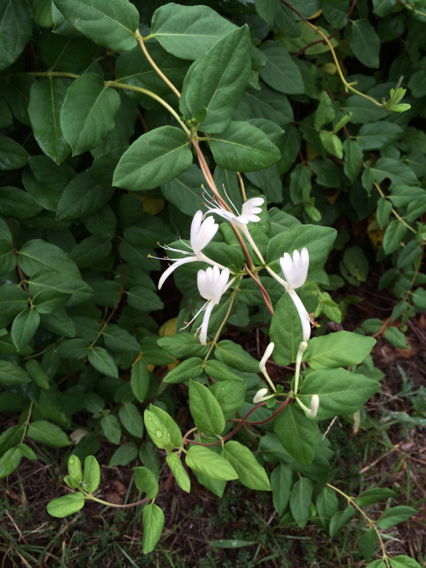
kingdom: Plantae
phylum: Tracheophyta
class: Magnoliopsida
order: Dipsacales
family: Caprifoliaceae
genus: Lonicera
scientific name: Lonicera japonica
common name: Japanese honeysuckle
